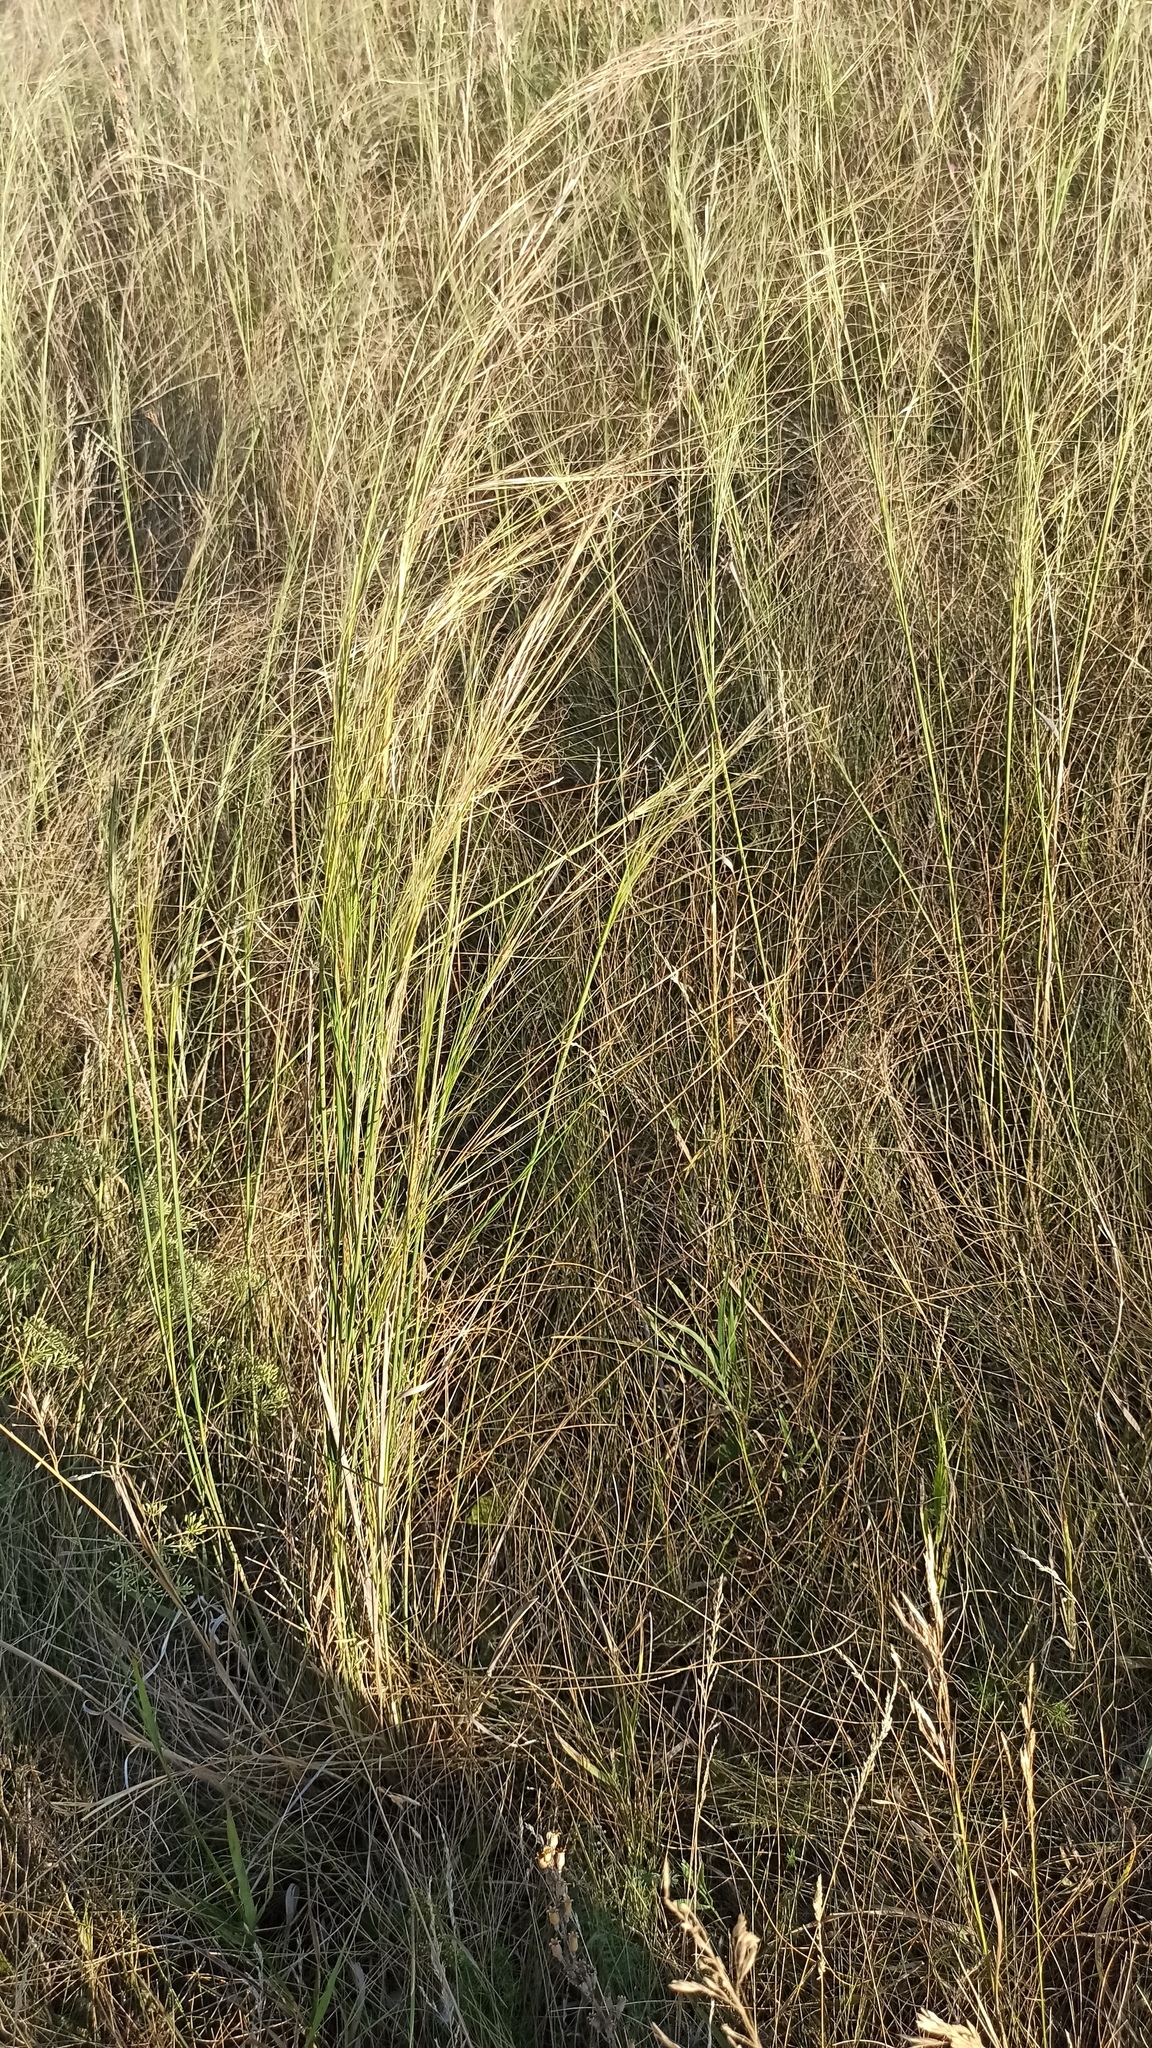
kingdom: Plantae
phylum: Tracheophyta
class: Liliopsida
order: Poales
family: Poaceae
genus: Stipa
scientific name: Stipa capillata
